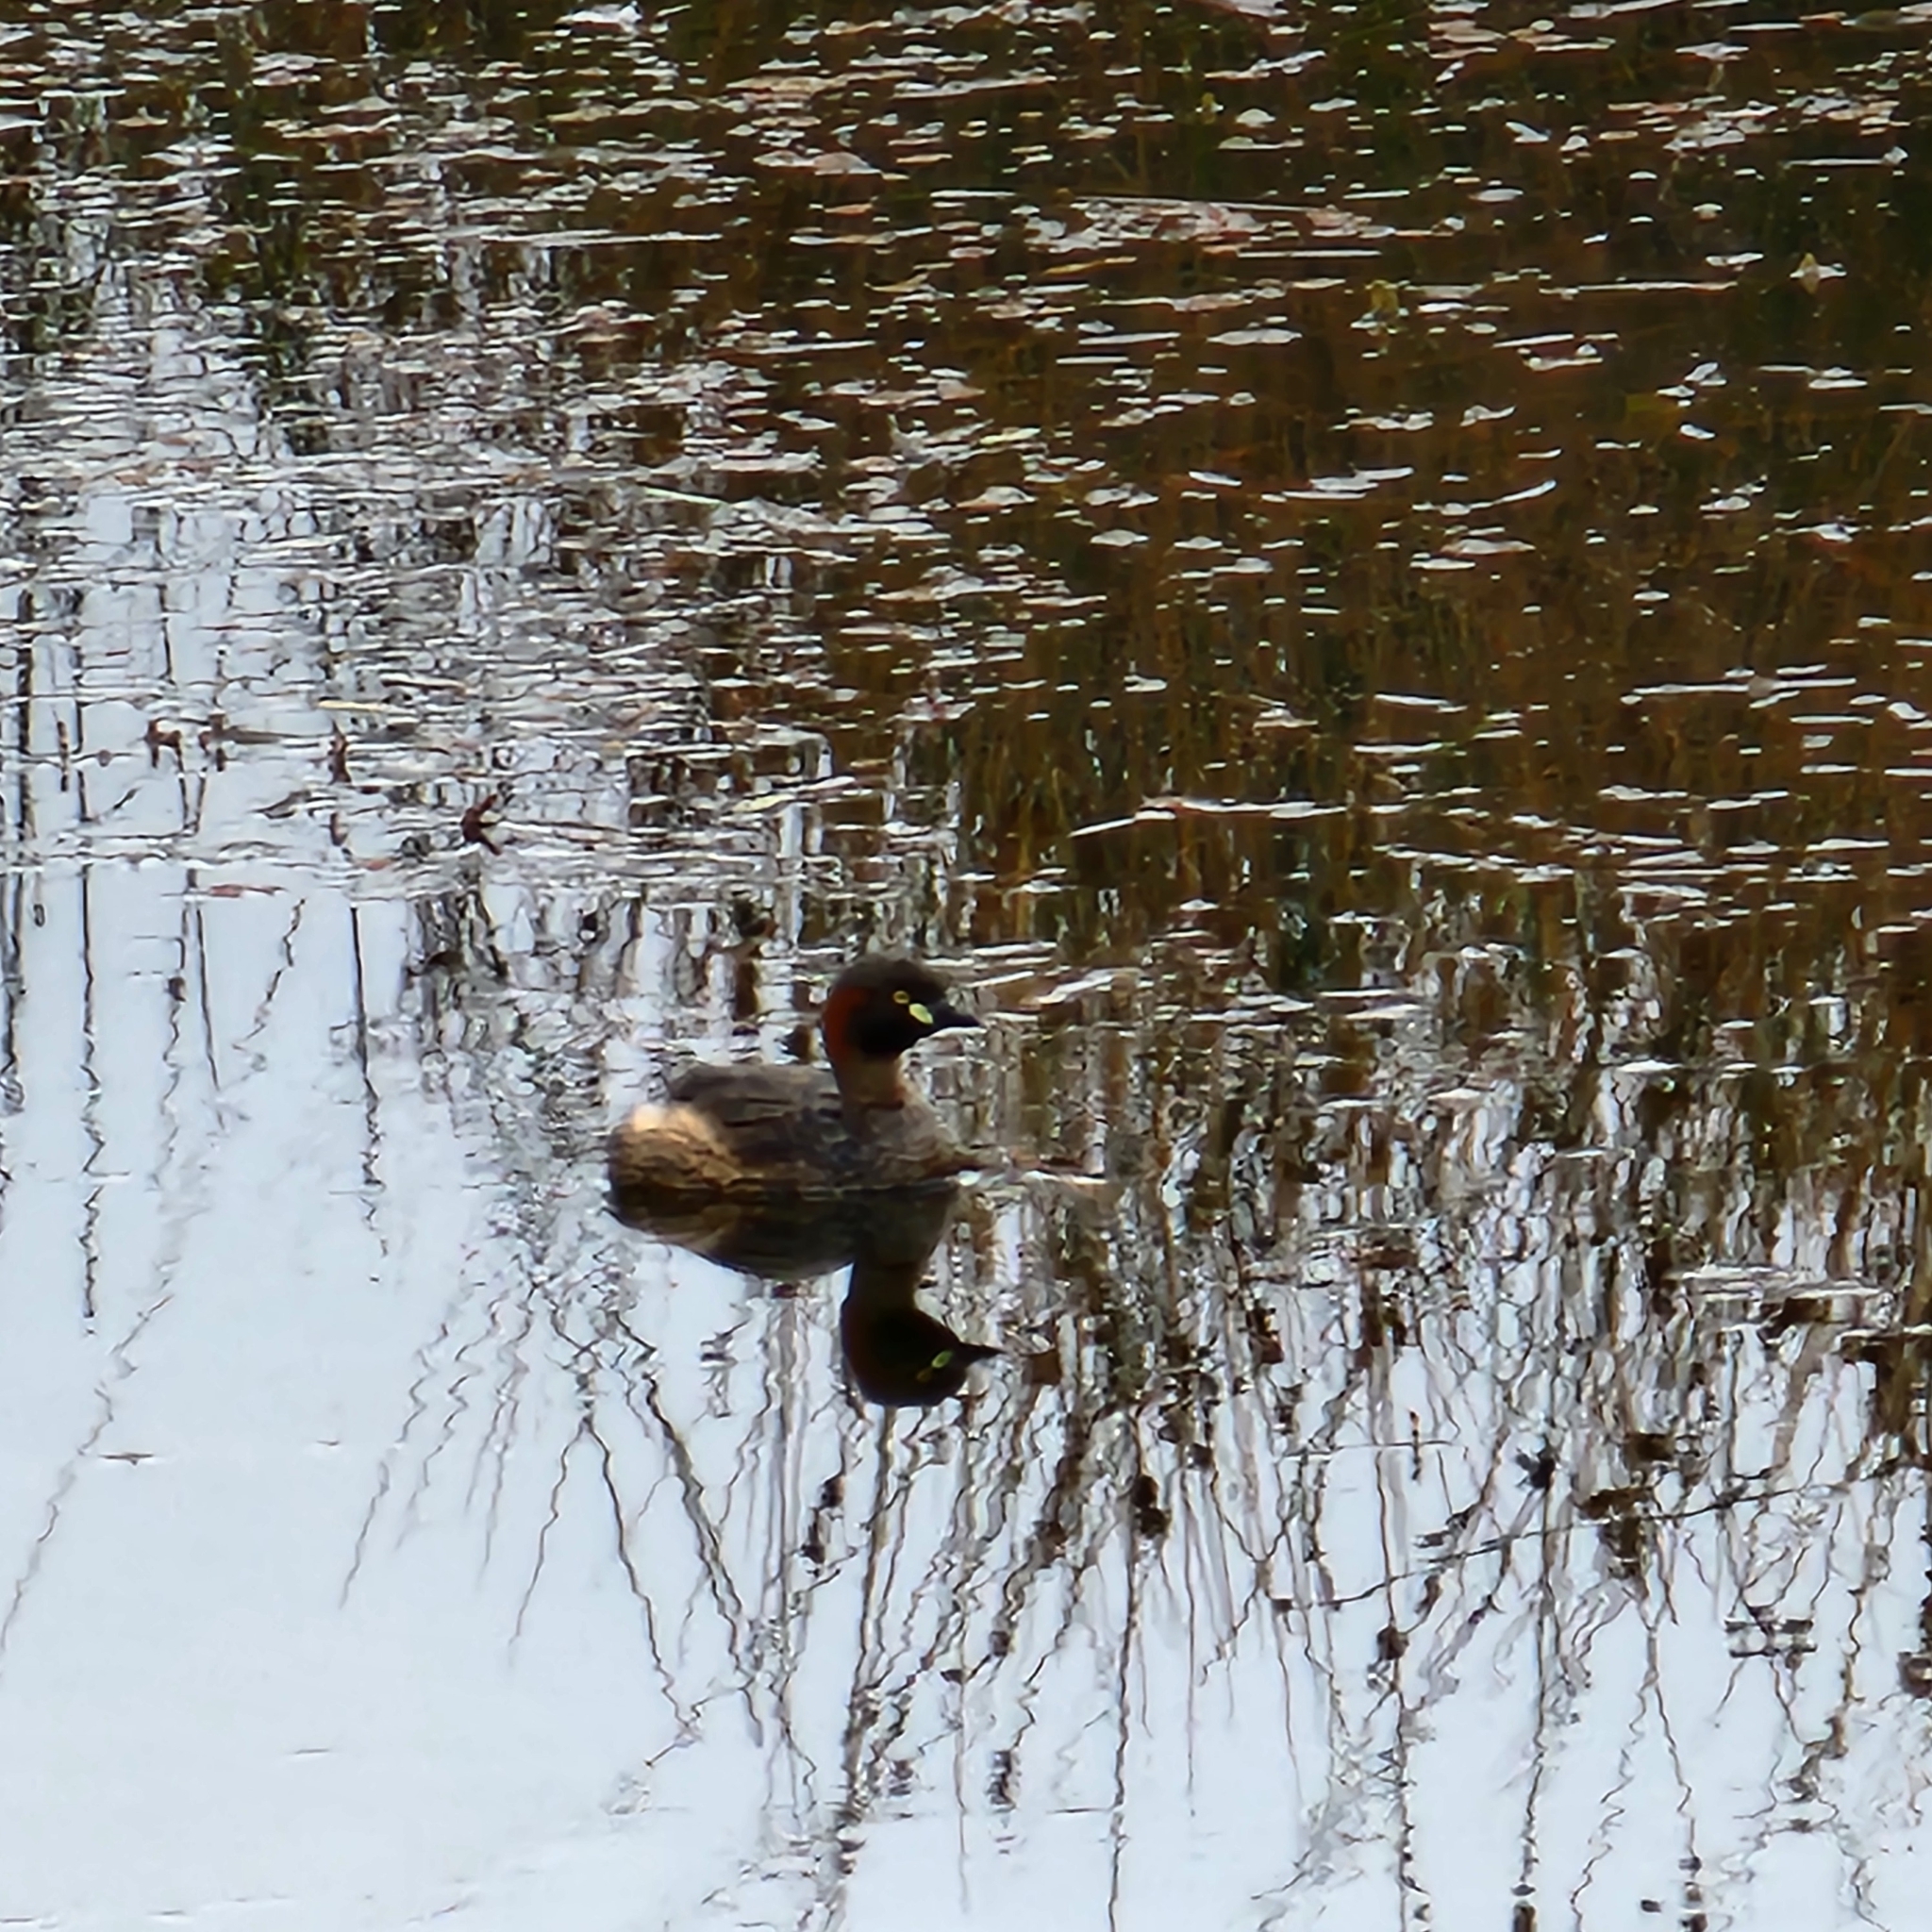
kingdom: Animalia
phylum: Chordata
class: Aves
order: Podicipediformes
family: Podicipedidae
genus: Tachybaptus
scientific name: Tachybaptus novaehollandiae
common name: Australasian grebe
